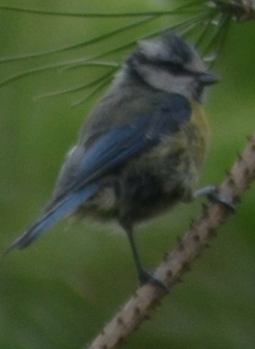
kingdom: Animalia
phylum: Chordata
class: Aves
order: Passeriformes
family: Paridae
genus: Cyanistes
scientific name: Cyanistes caeruleus
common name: Eurasian blue tit
